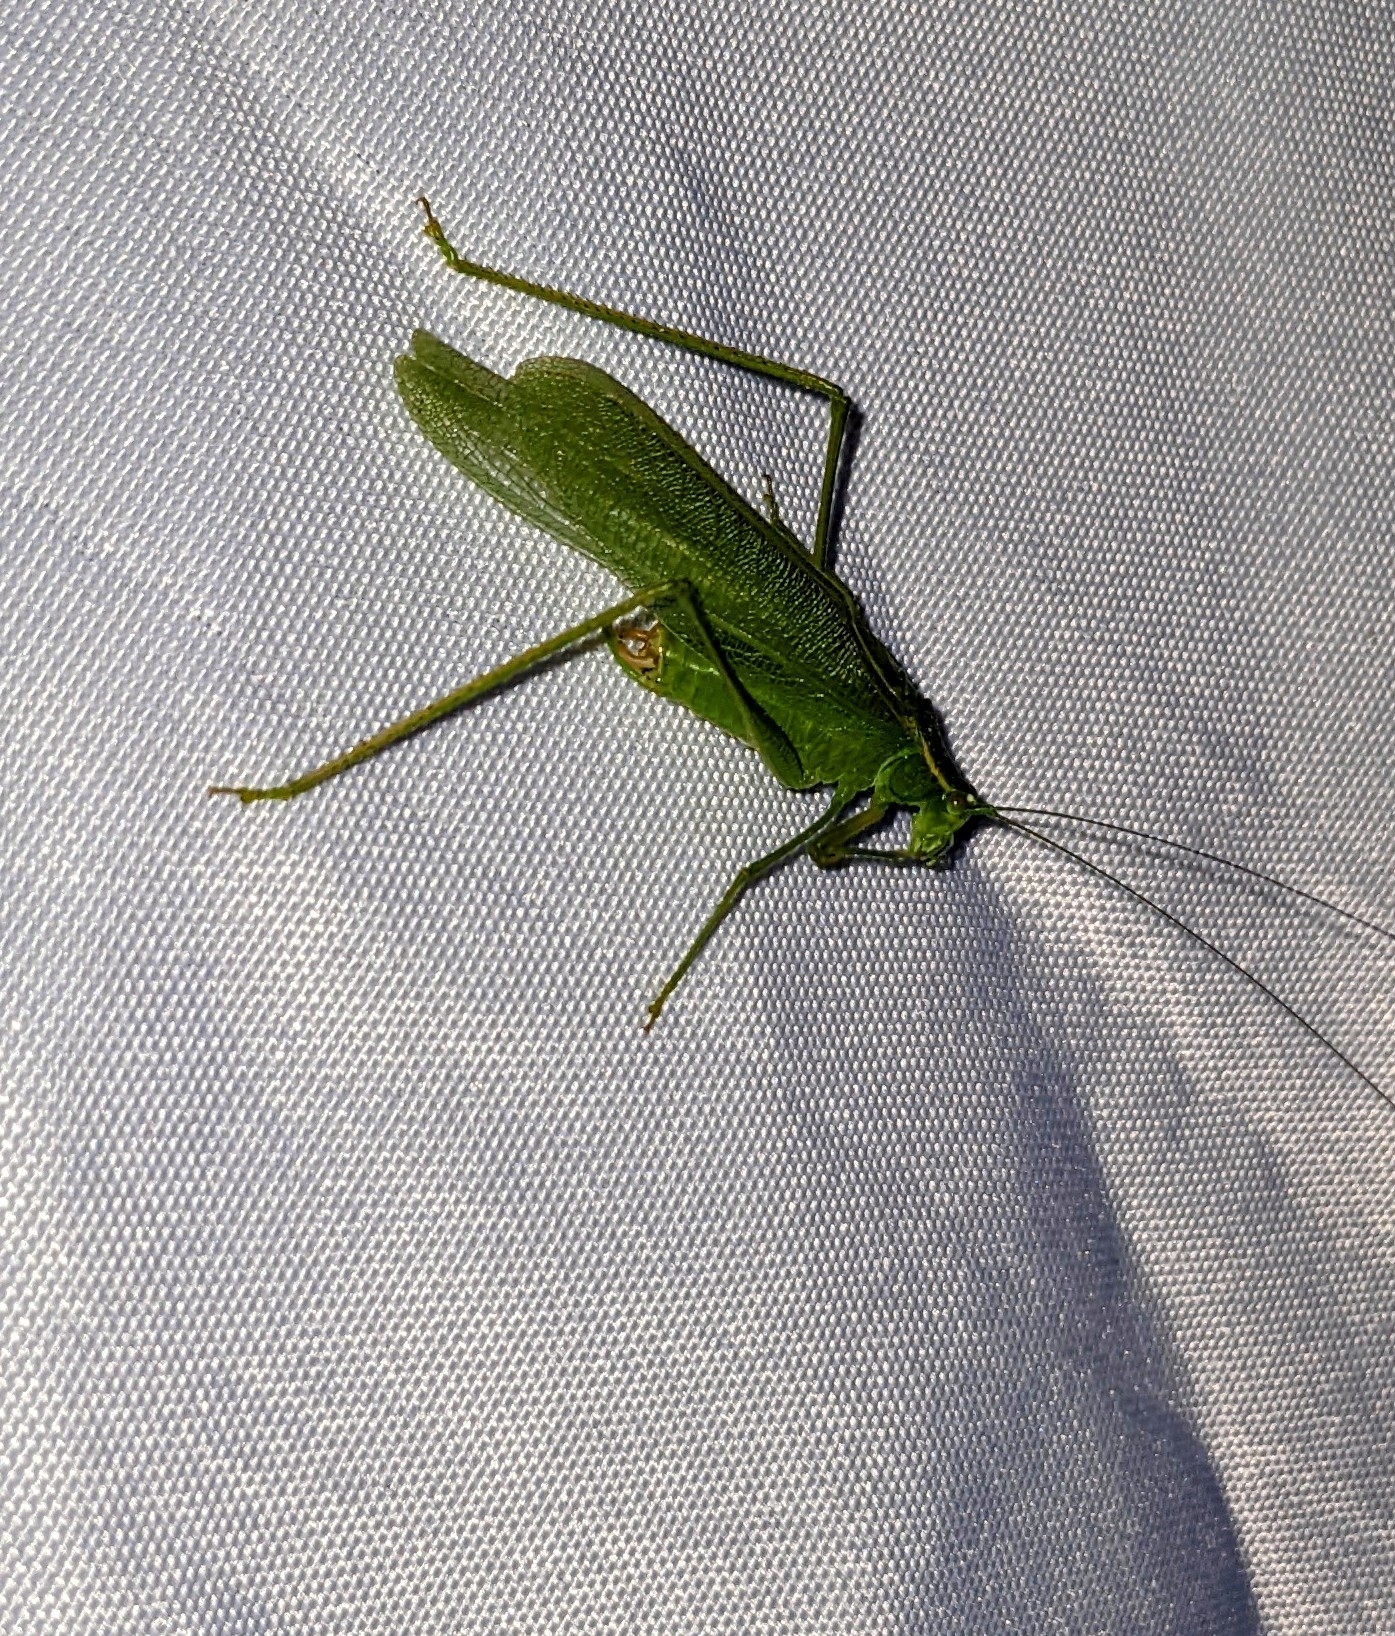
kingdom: Animalia
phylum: Arthropoda
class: Insecta
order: Orthoptera
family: Tettigoniidae
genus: Scudderia
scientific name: Scudderia septentrionalis
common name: Northern bush-katydid
